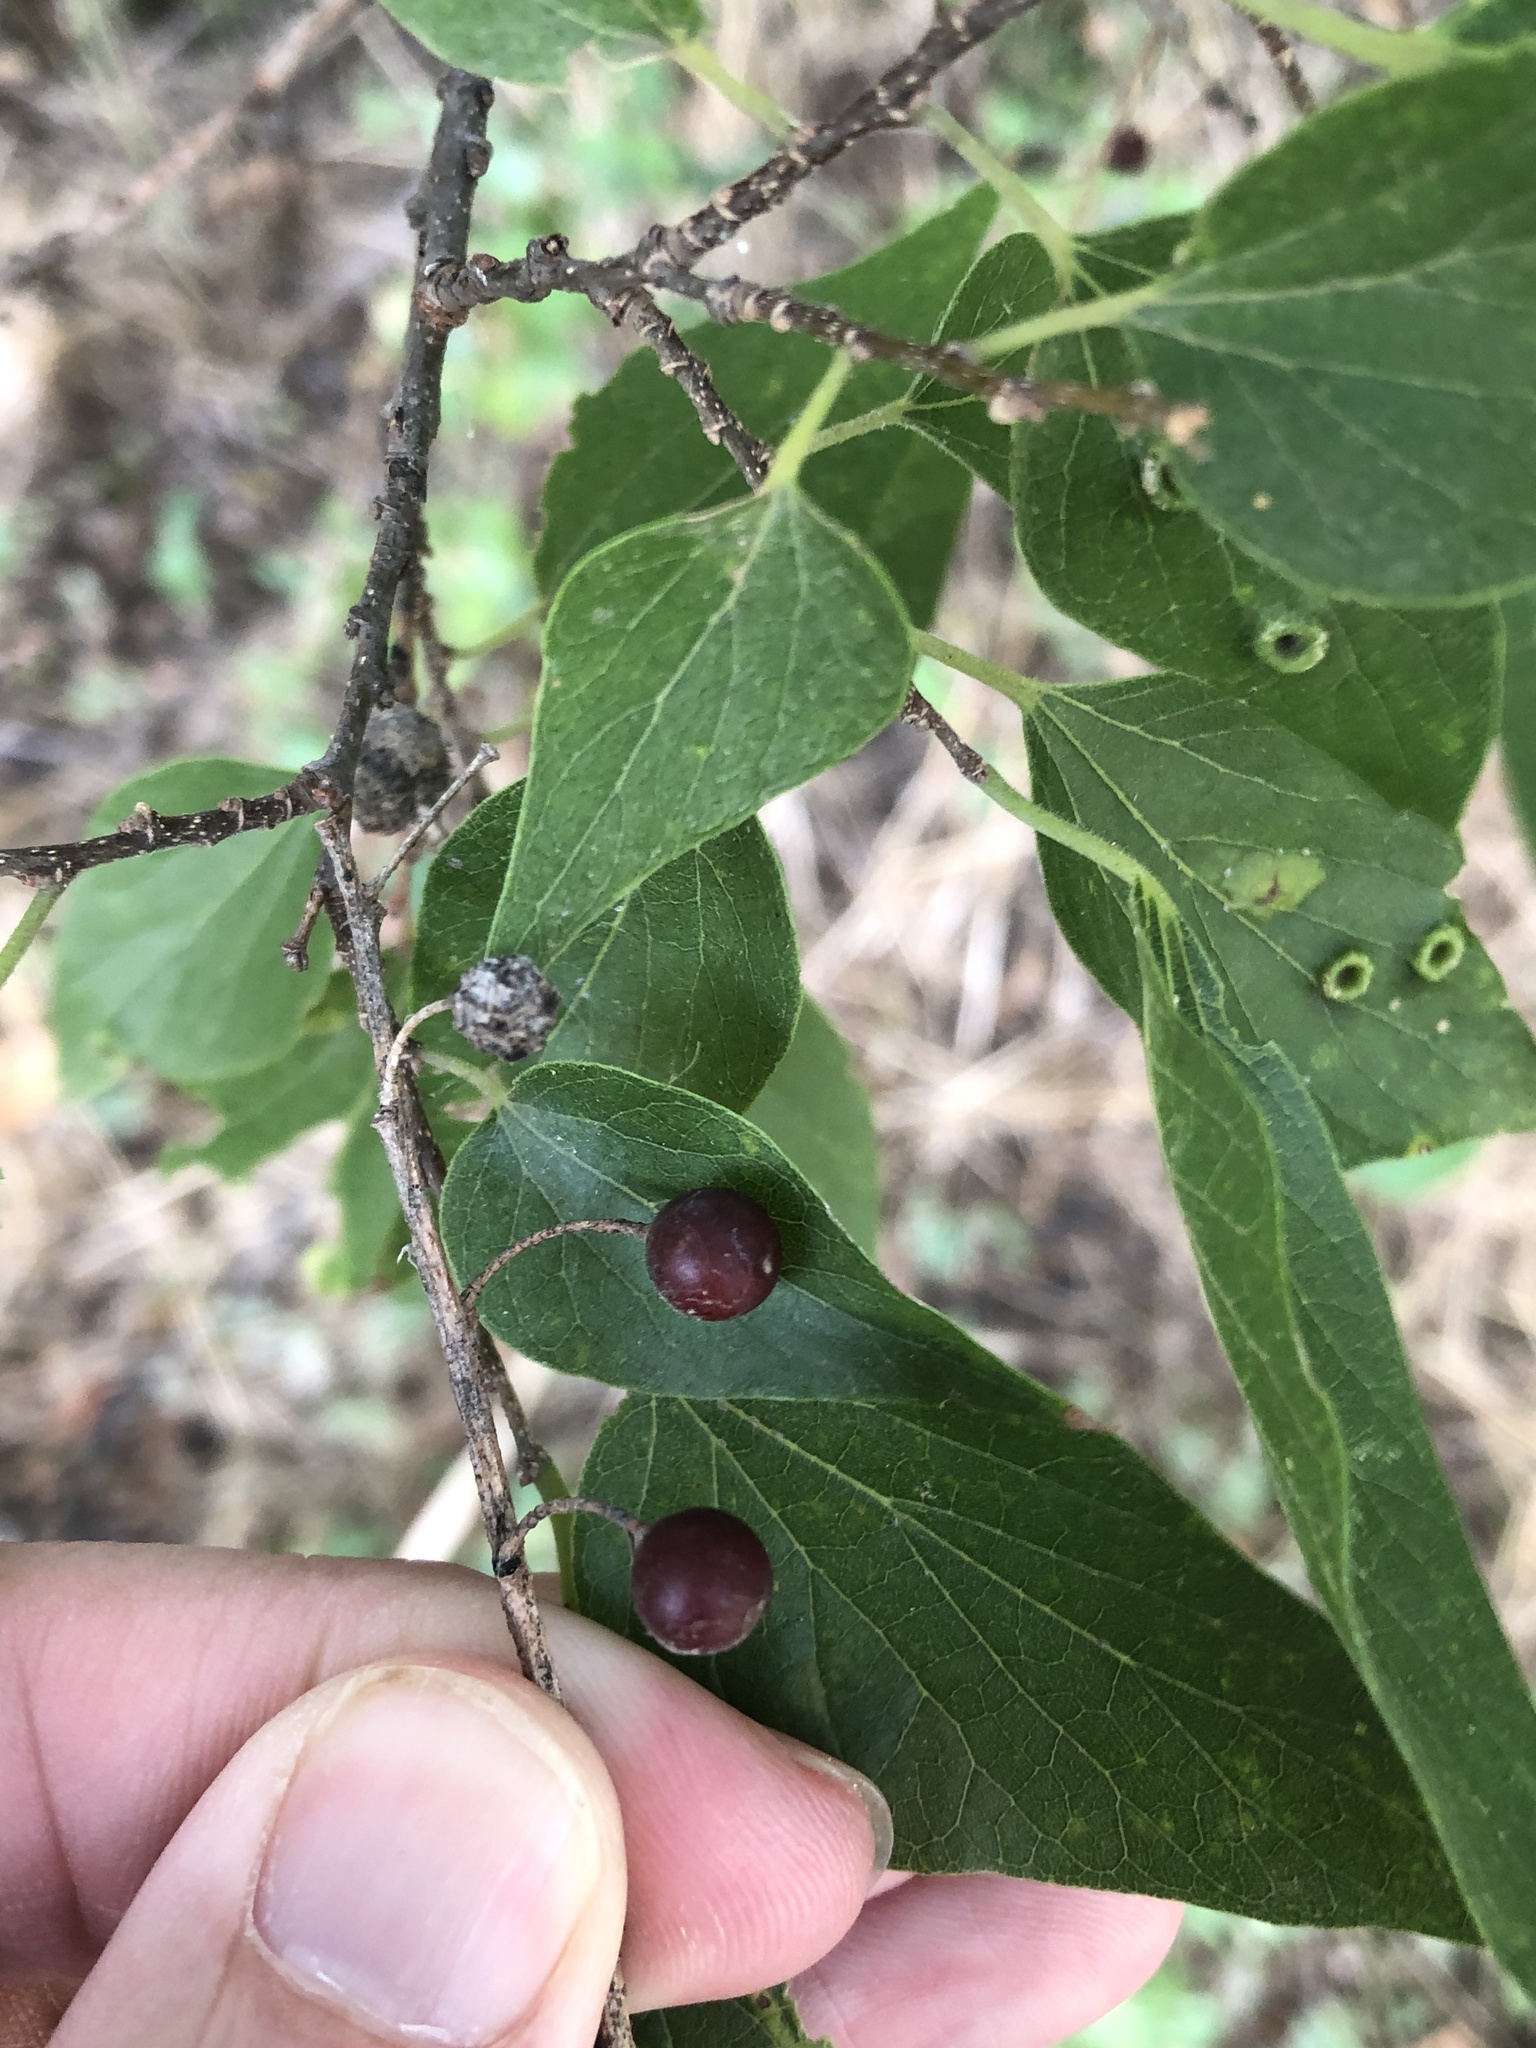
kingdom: Plantae
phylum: Tracheophyta
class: Magnoliopsida
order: Rosales
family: Cannabaceae
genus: Celtis
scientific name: Celtis laevigata
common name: Sugarberry
